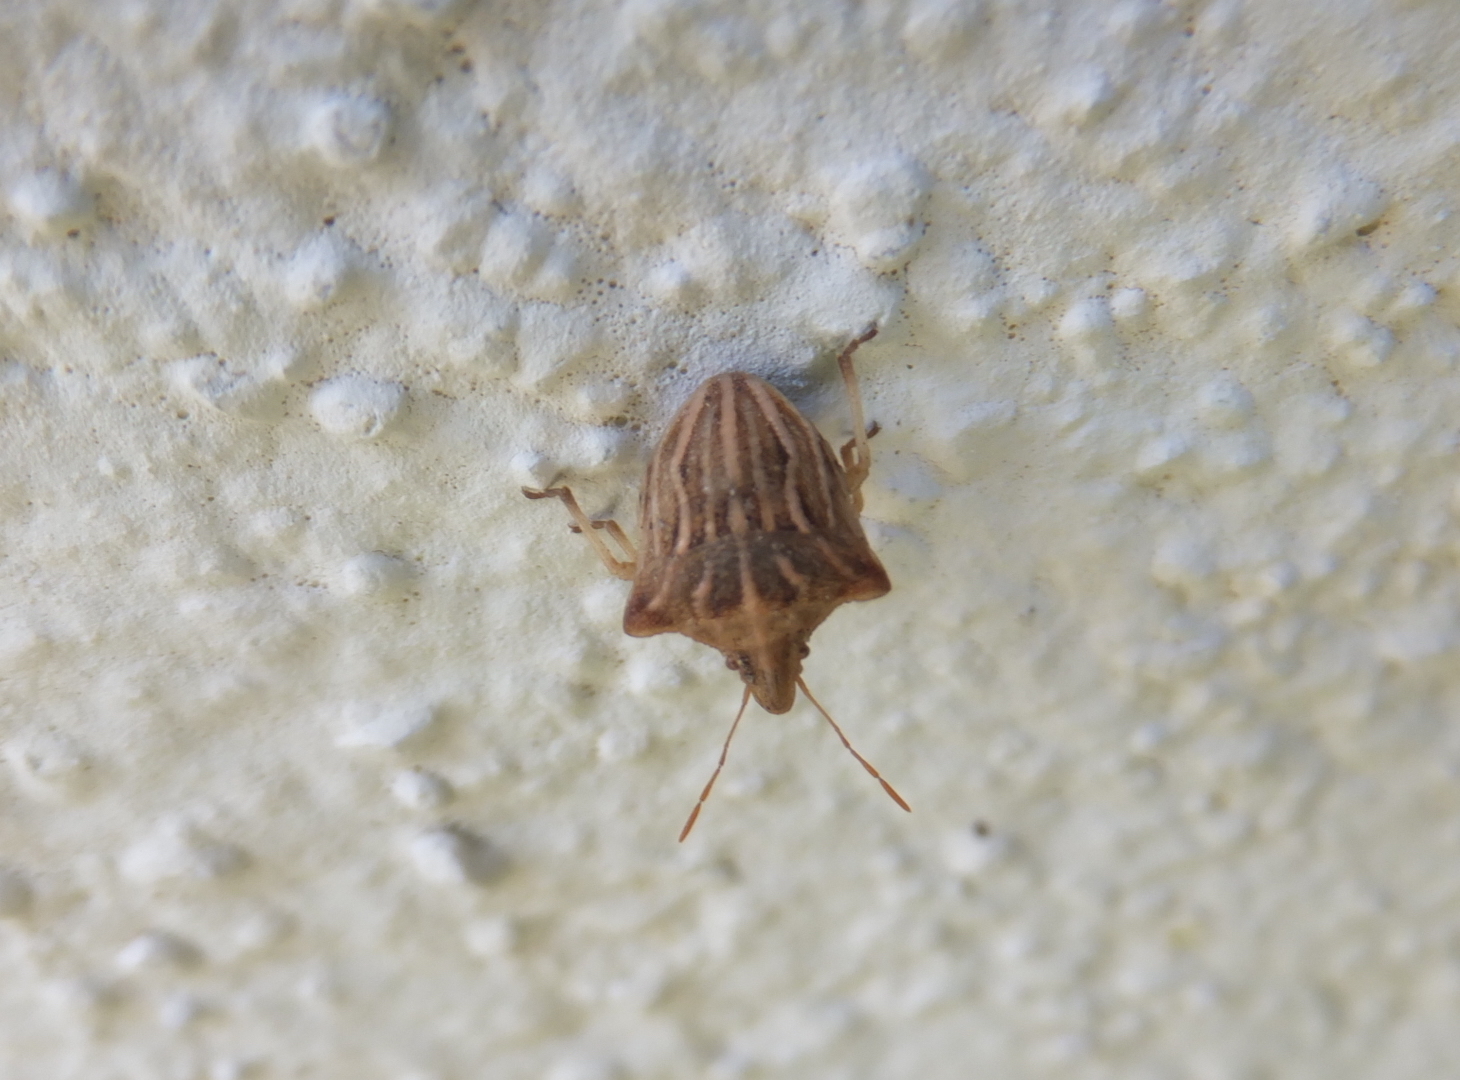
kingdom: Animalia
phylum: Arthropoda
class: Insecta
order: Hemiptera
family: Pentatomidae
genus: Ancyrosoma
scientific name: Ancyrosoma leucogrammes
